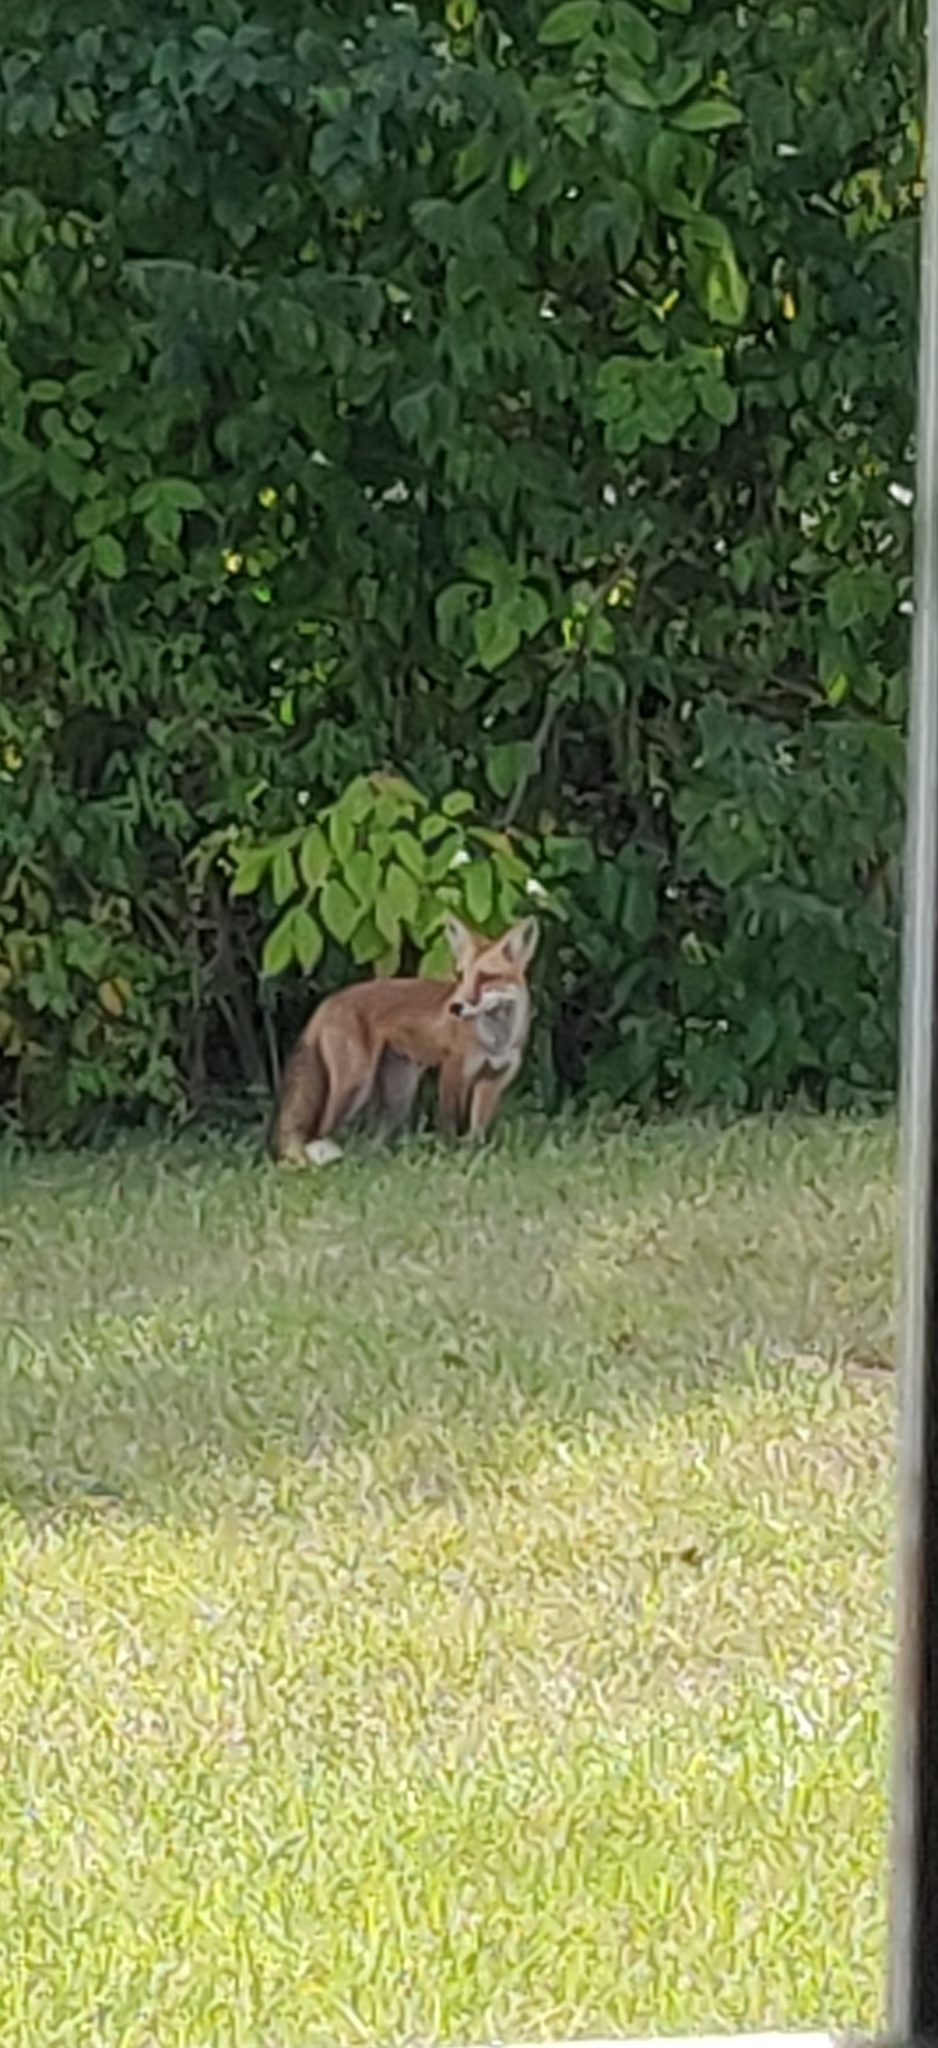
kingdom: Animalia
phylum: Chordata
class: Mammalia
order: Carnivora
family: Canidae
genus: Vulpes
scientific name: Vulpes vulpes
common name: Red fox
